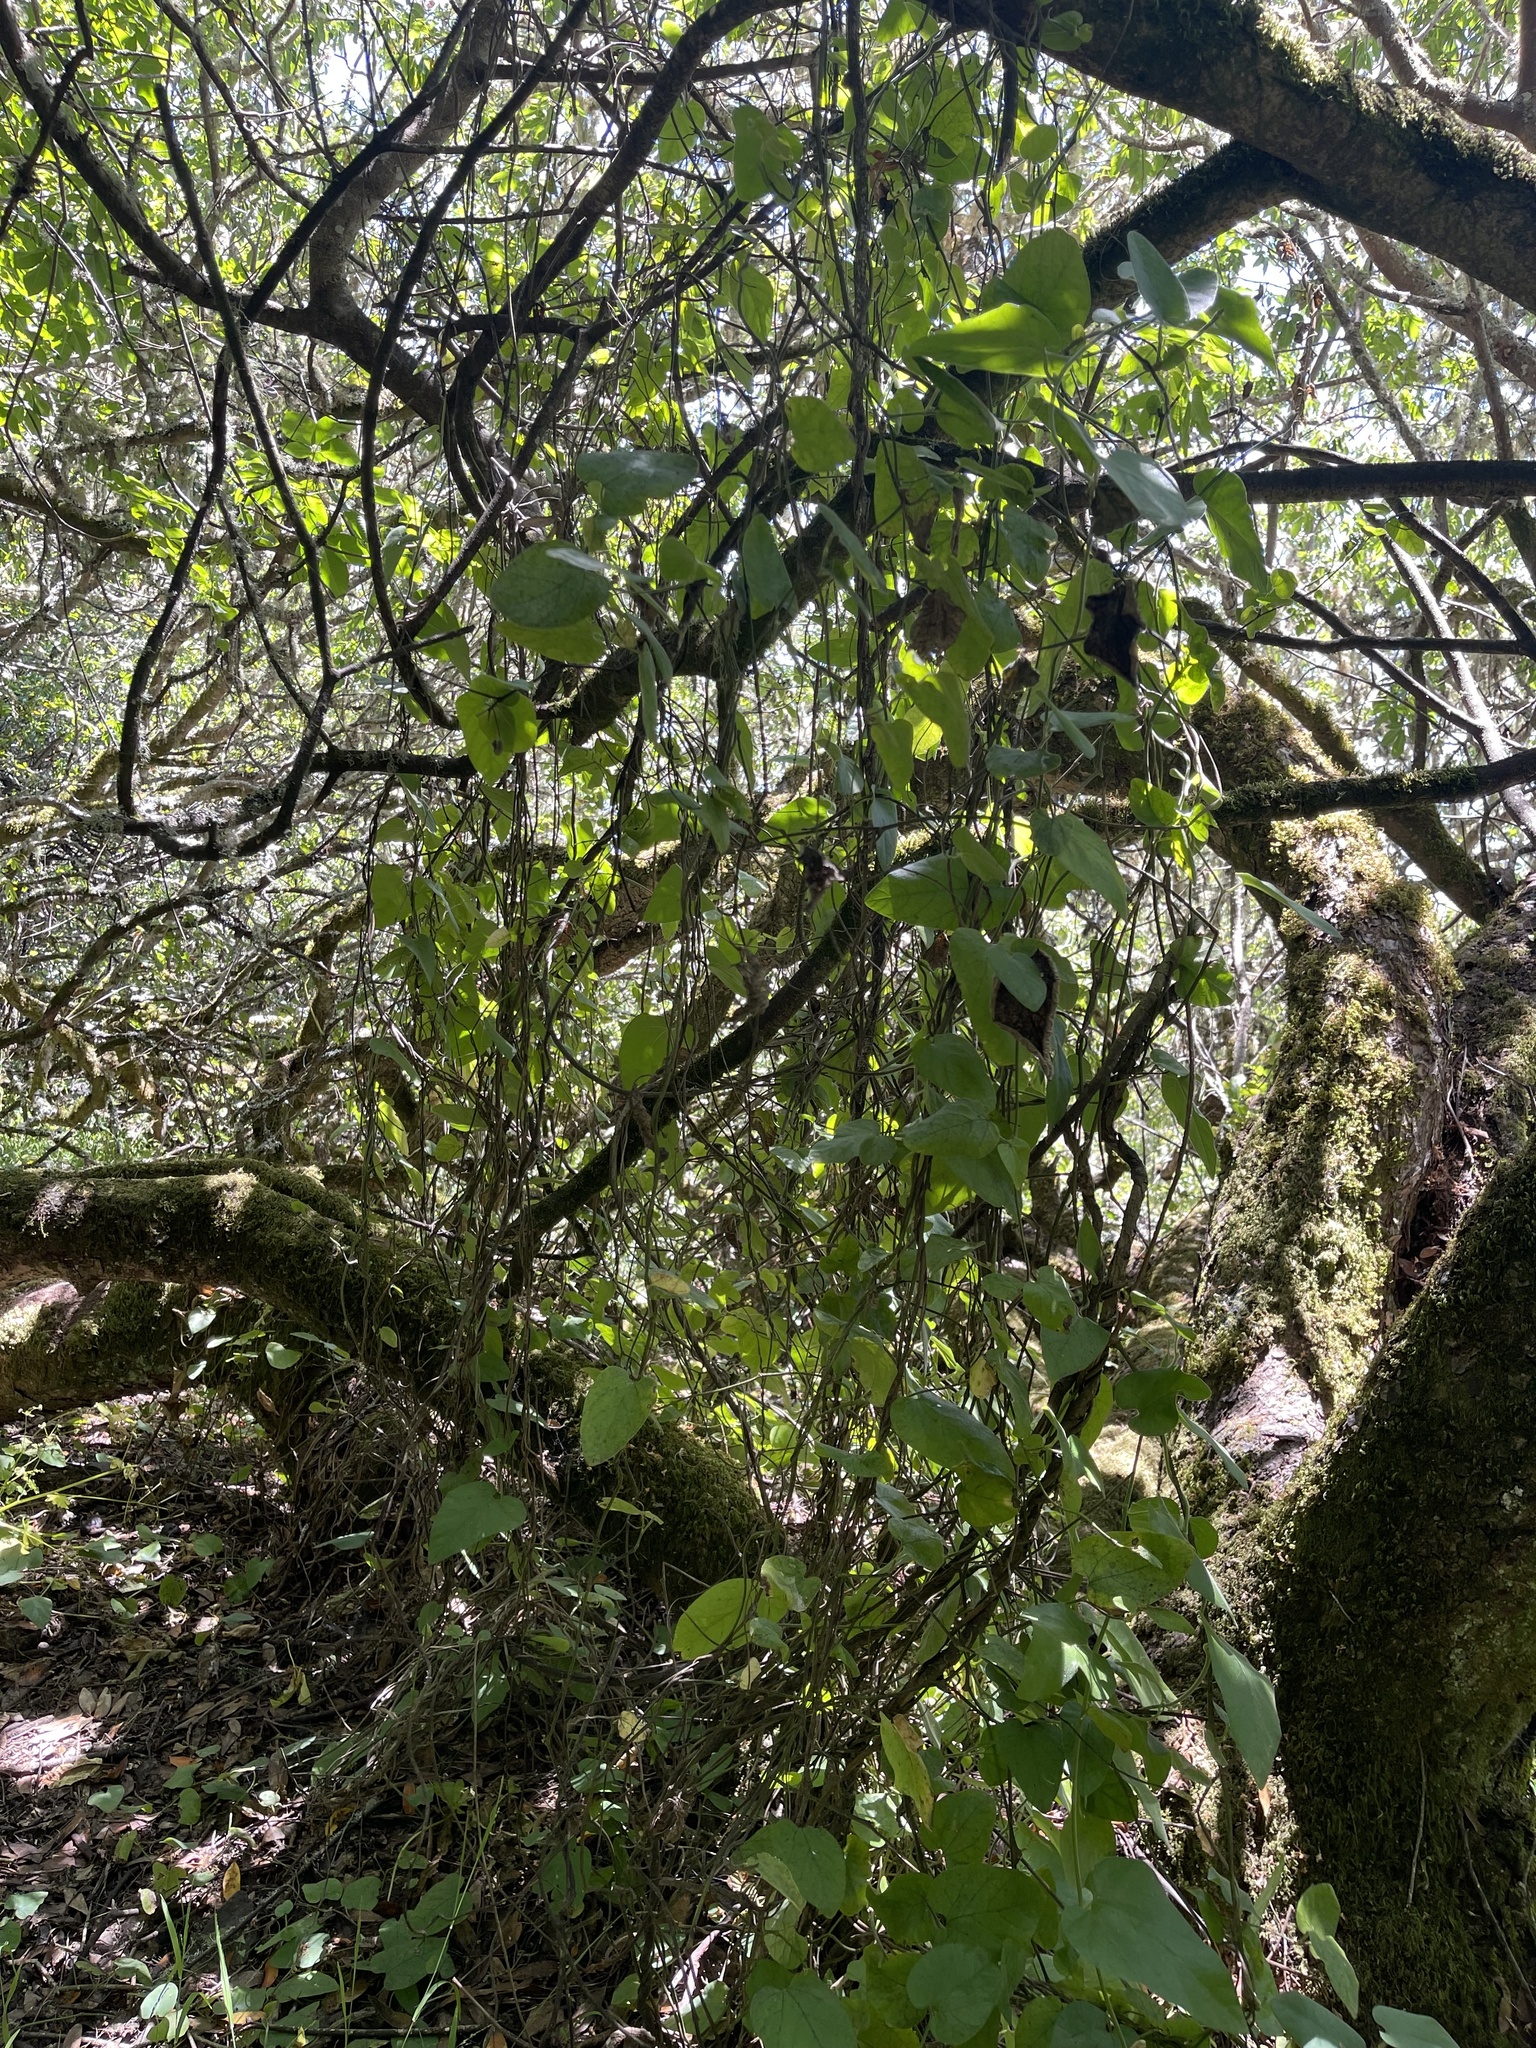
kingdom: Plantae
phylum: Tracheophyta
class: Magnoliopsida
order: Piperales
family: Aristolochiaceae
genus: Isotrema
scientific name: Isotrema californicum
